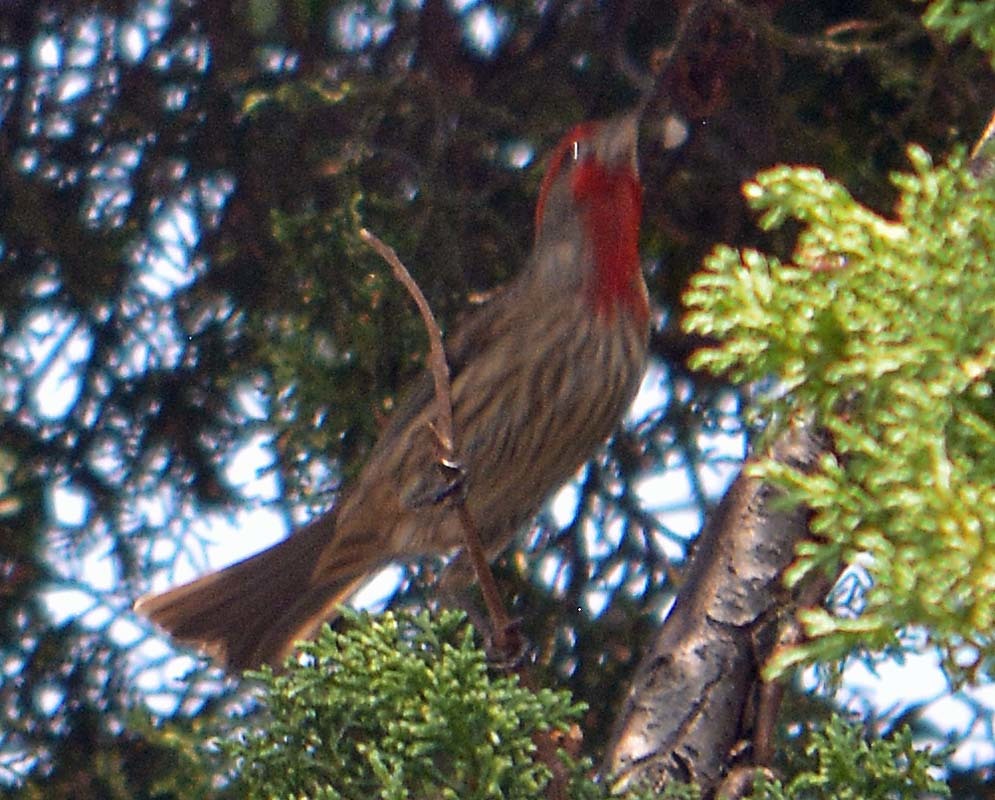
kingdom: Animalia
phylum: Chordata
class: Aves
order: Passeriformes
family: Fringillidae
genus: Haemorhous
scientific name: Haemorhous mexicanus
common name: House finch
